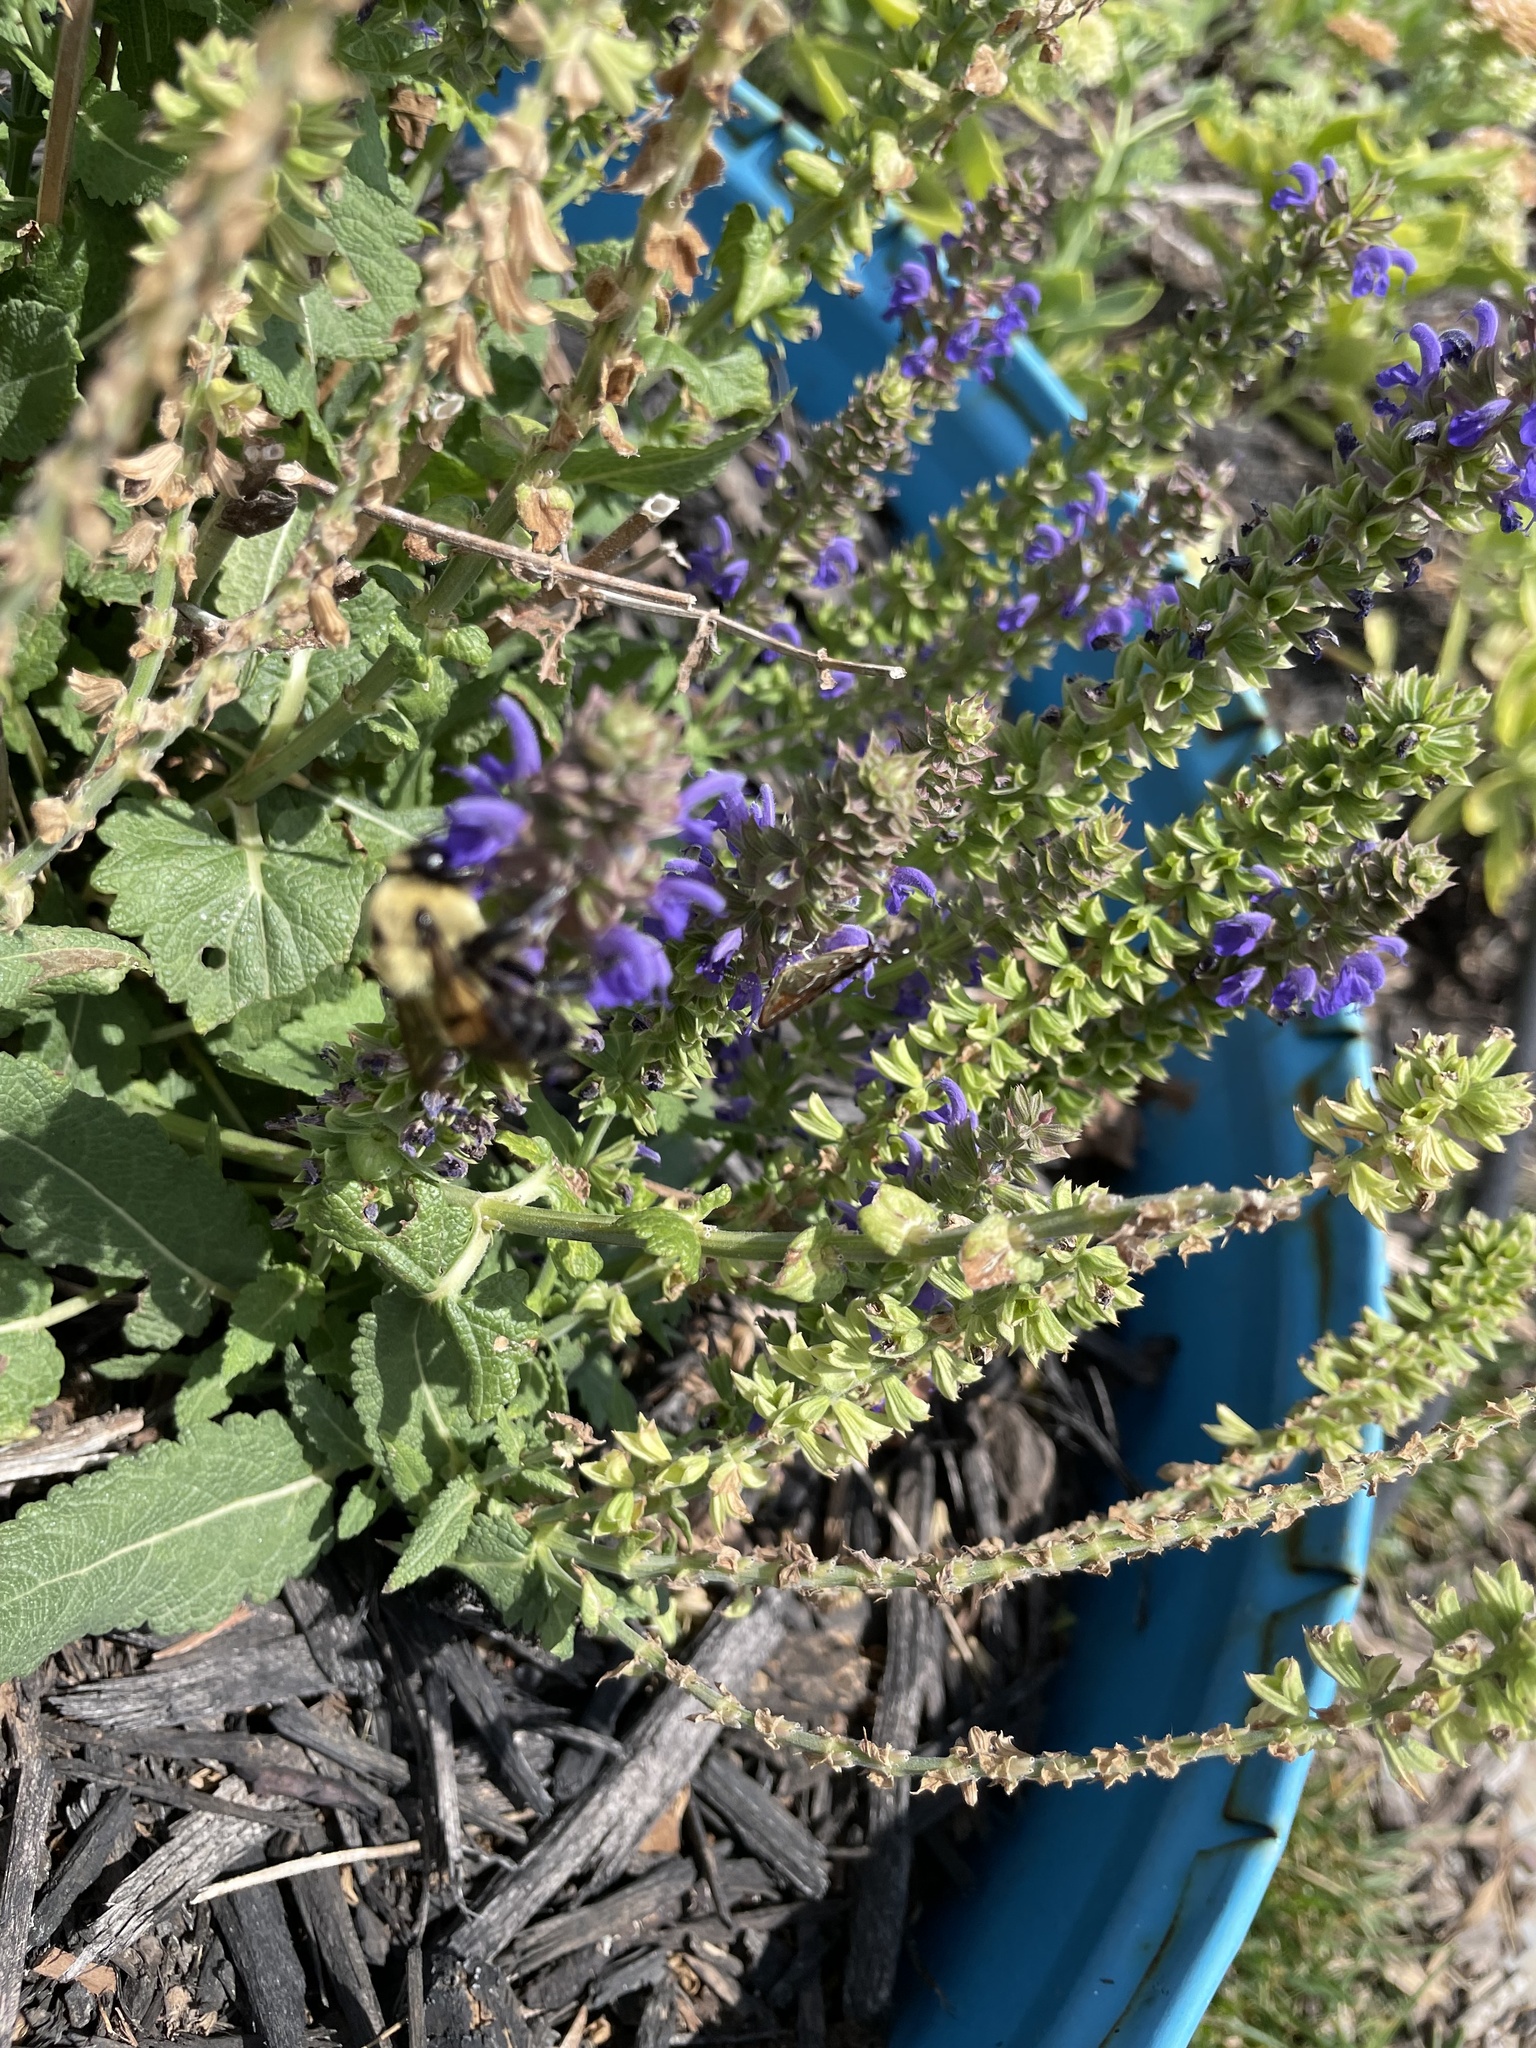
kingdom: Animalia
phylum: Arthropoda
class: Insecta
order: Hymenoptera
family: Apidae
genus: Bombus
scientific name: Bombus griseocollis
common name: Brown-belted bumble bee
